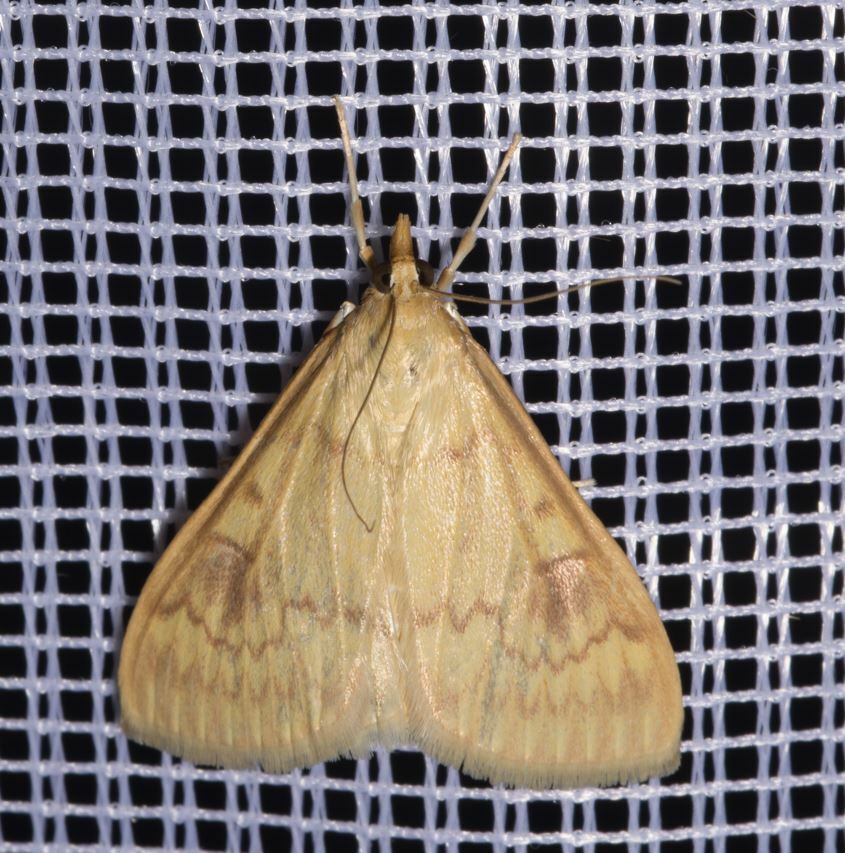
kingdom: Animalia
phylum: Arthropoda
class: Insecta
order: Lepidoptera
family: Crambidae
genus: Ostrinia
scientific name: Ostrinia nubilalis
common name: European corn borer
